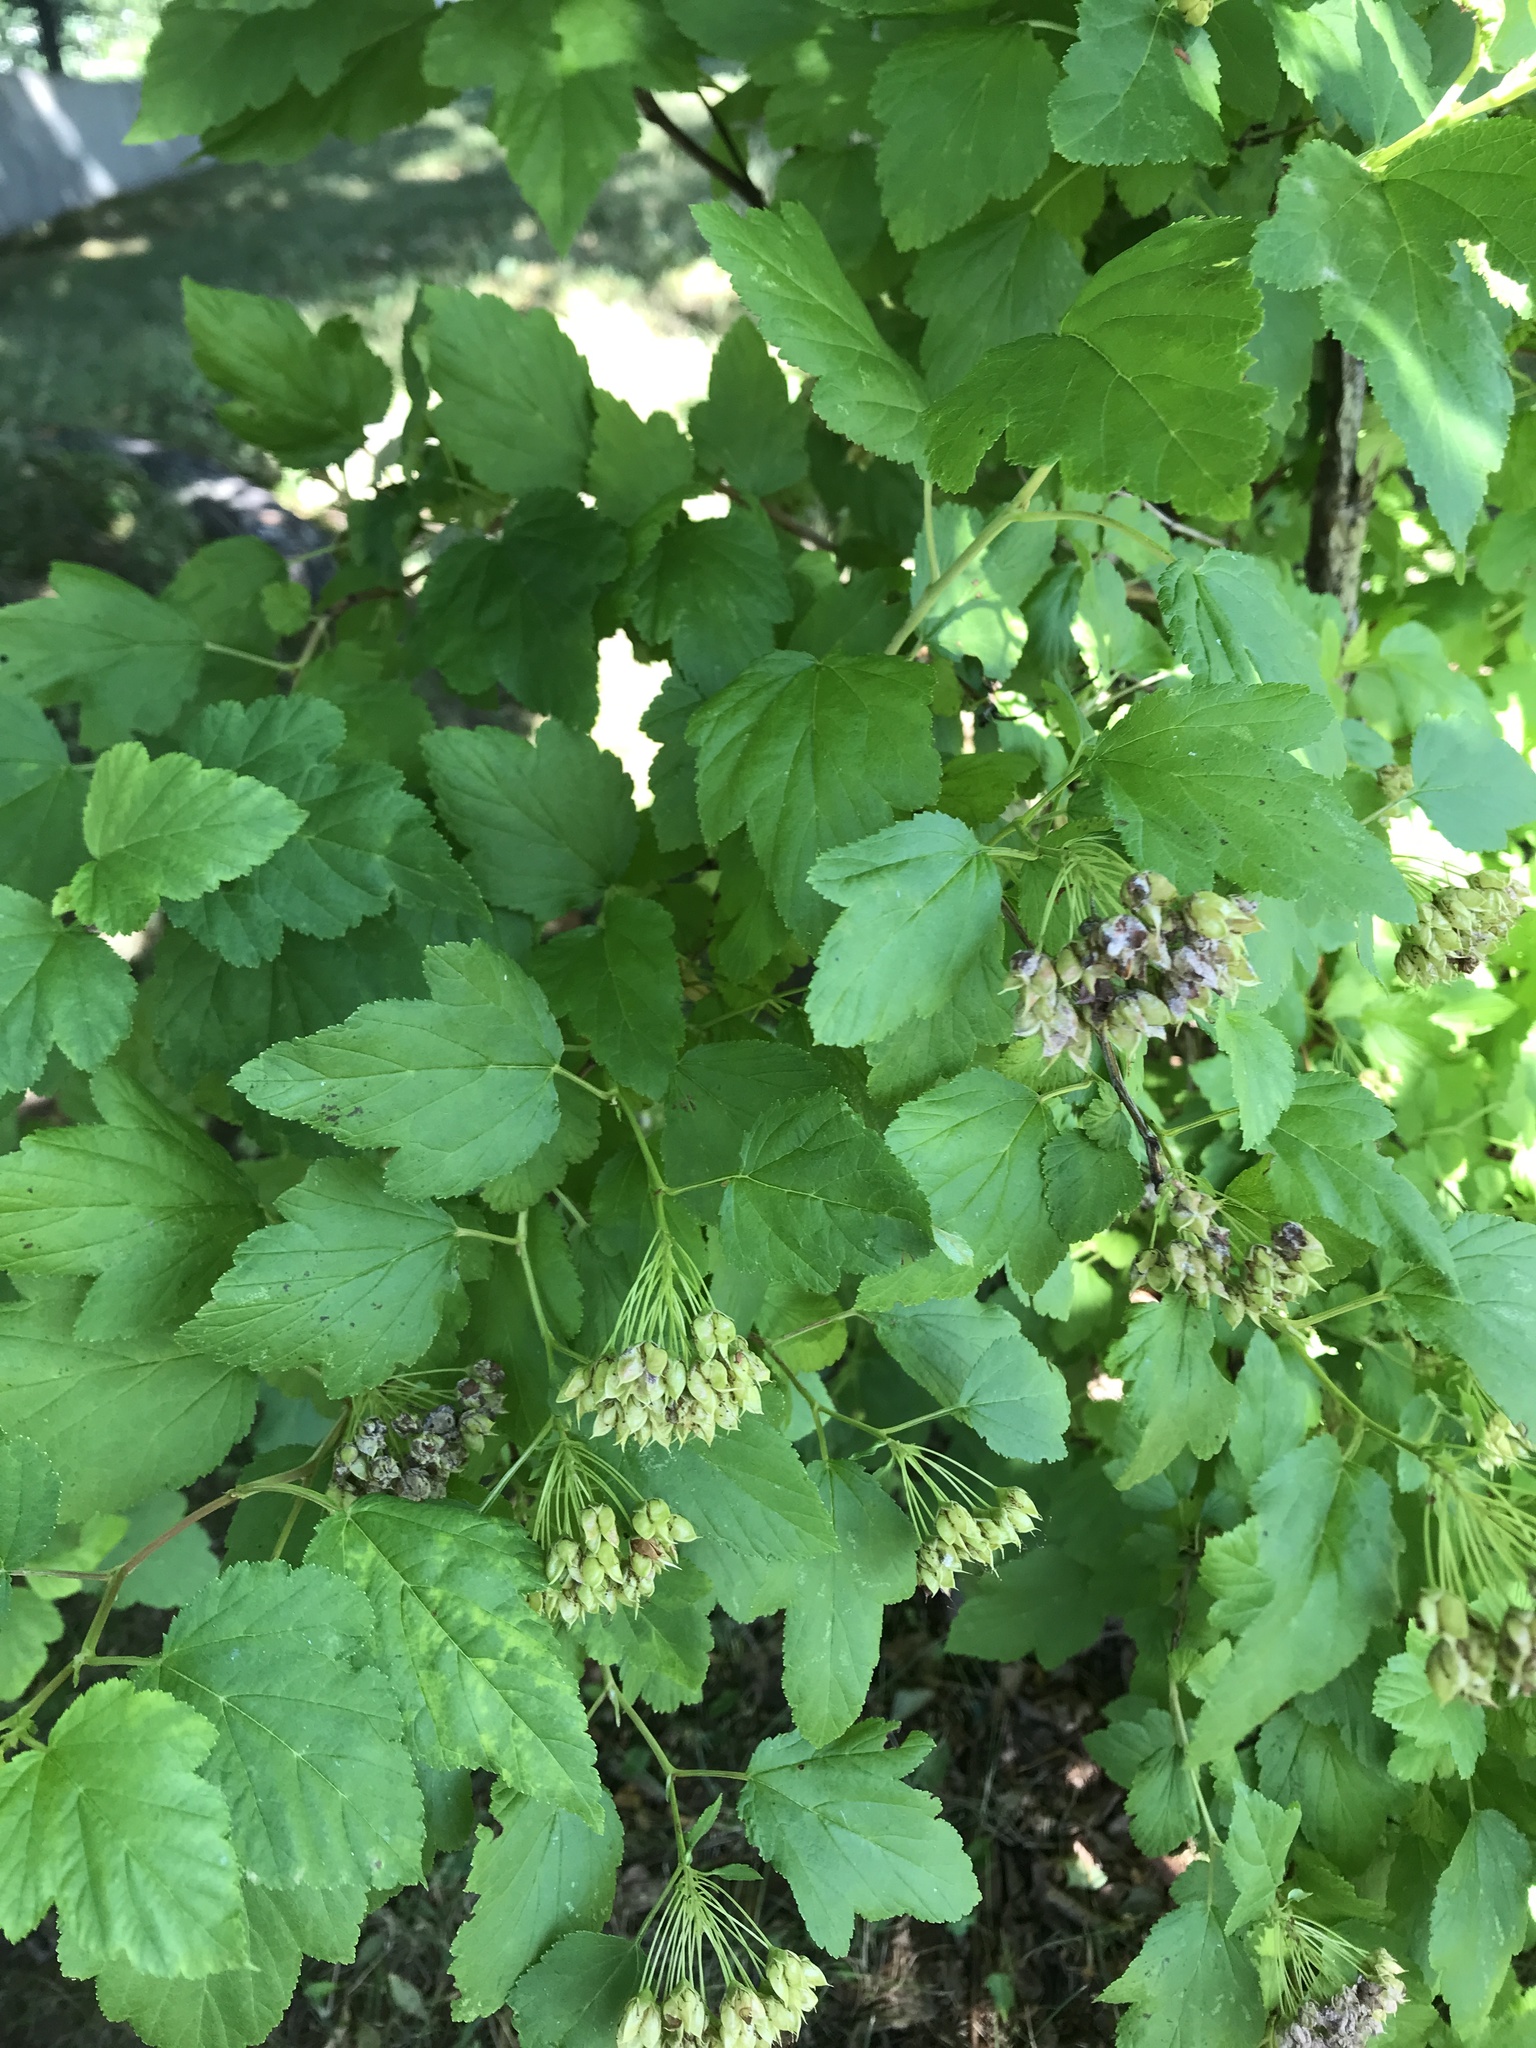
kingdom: Plantae
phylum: Tracheophyta
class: Magnoliopsida
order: Rosales
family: Rosaceae
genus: Physocarpus
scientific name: Physocarpus opulifolius
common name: Ninebark
